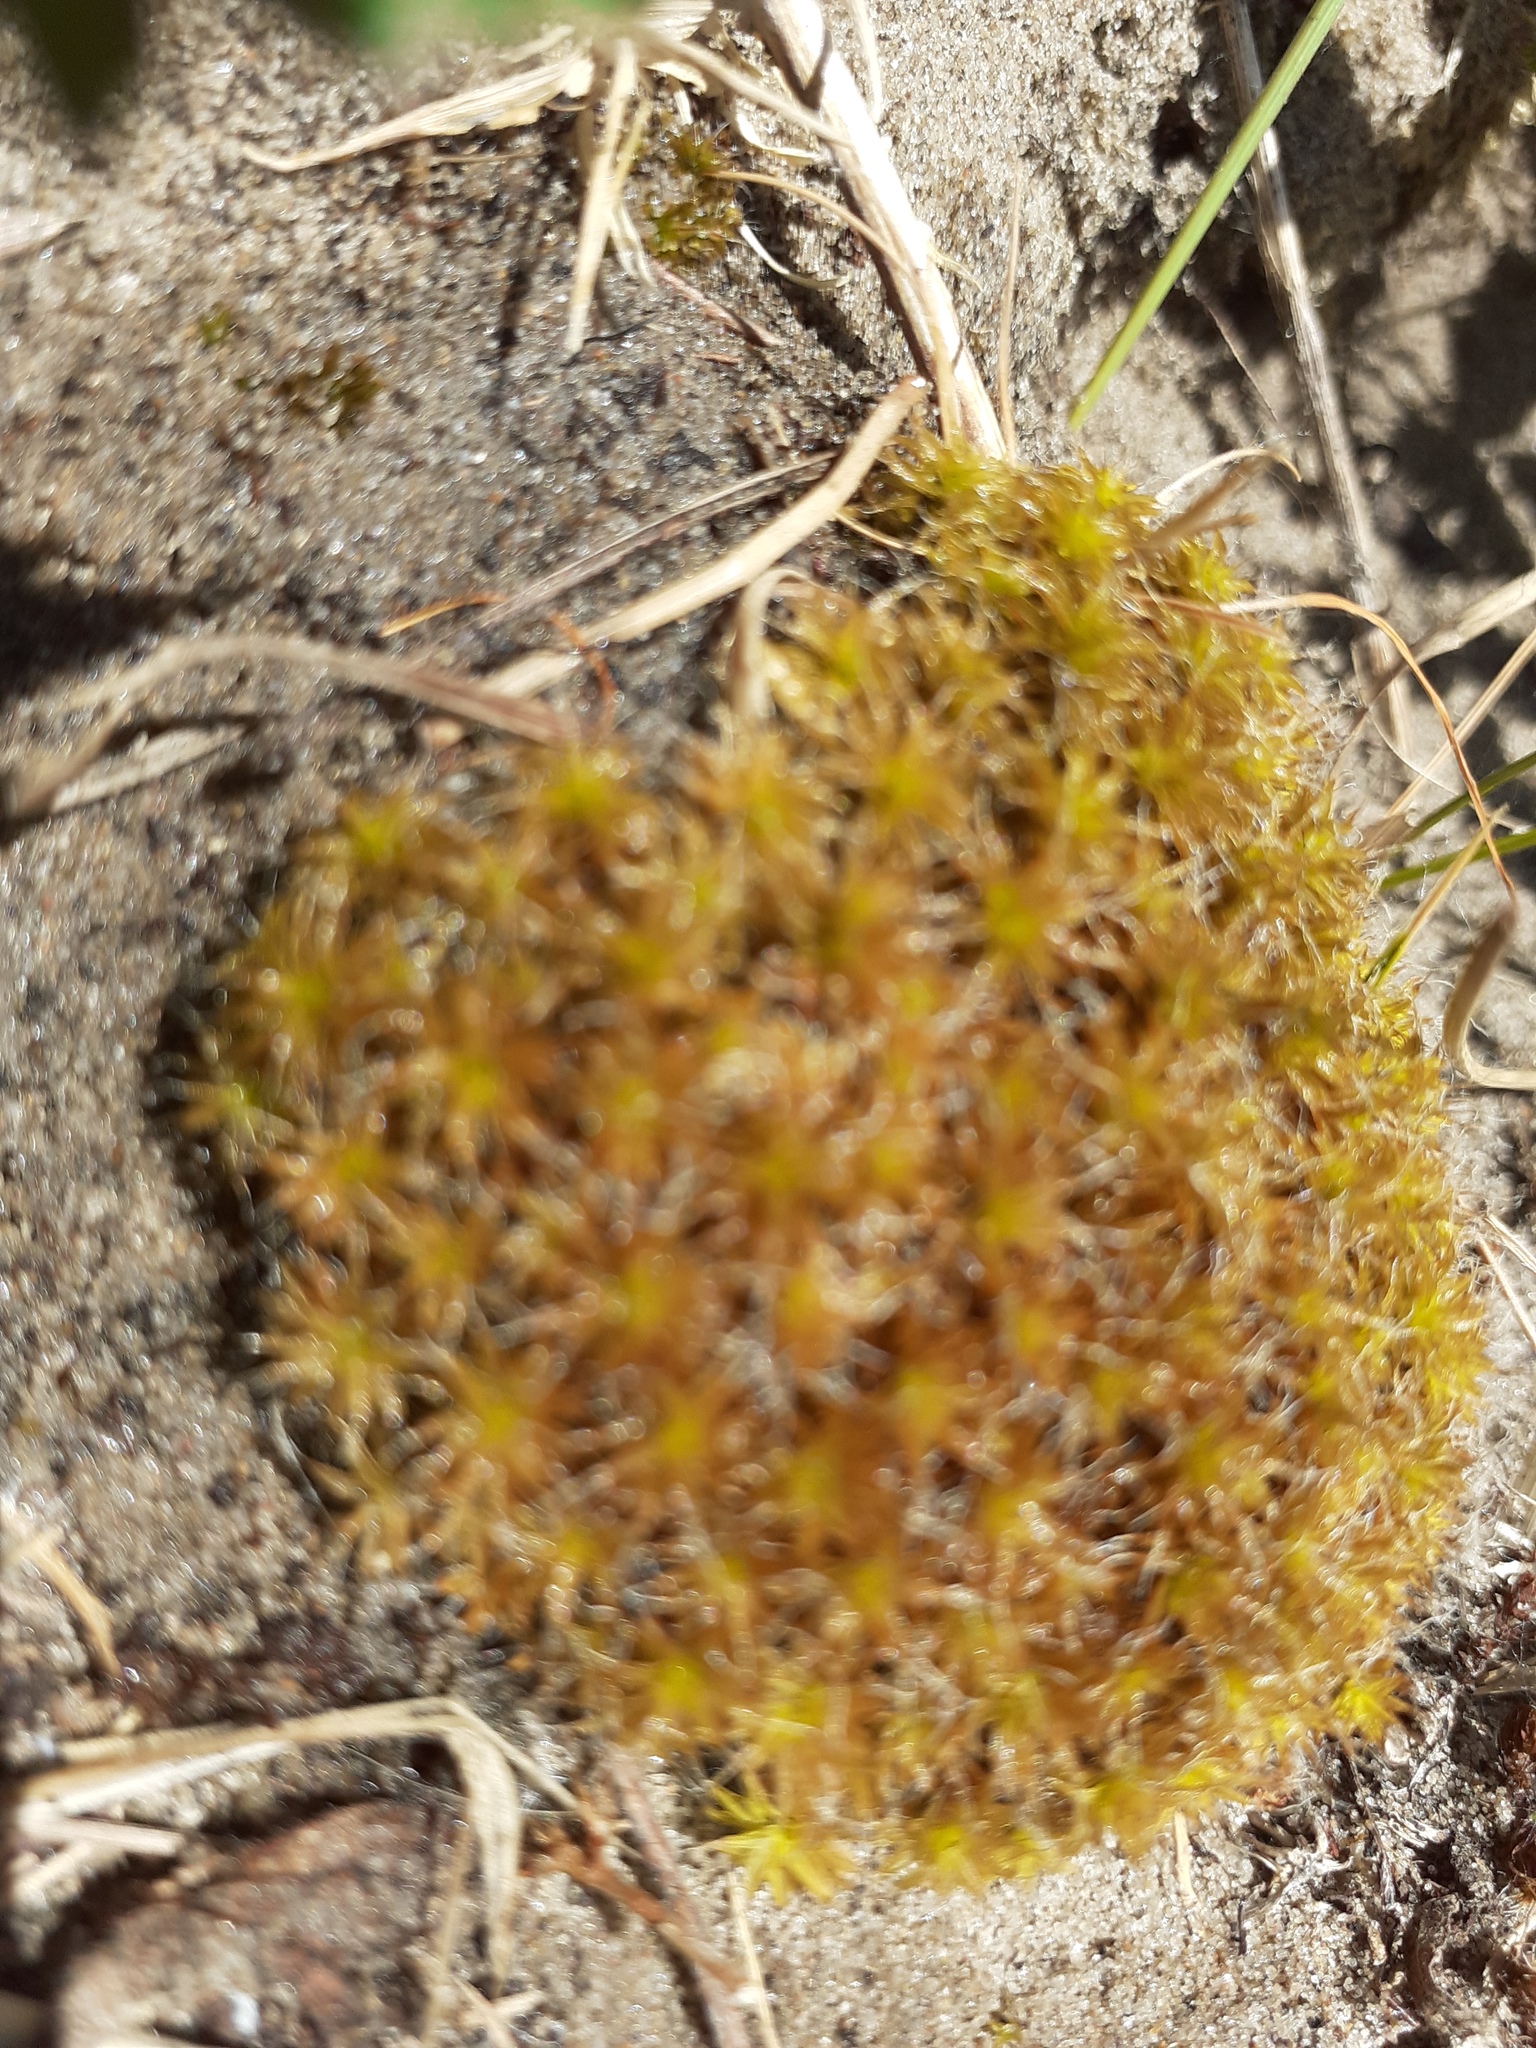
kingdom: Plantae
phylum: Bryophyta
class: Bryopsida
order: Pottiales
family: Pottiaceae
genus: Syntrichia
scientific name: Syntrichia ruralis
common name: Sidewalk screw moss
